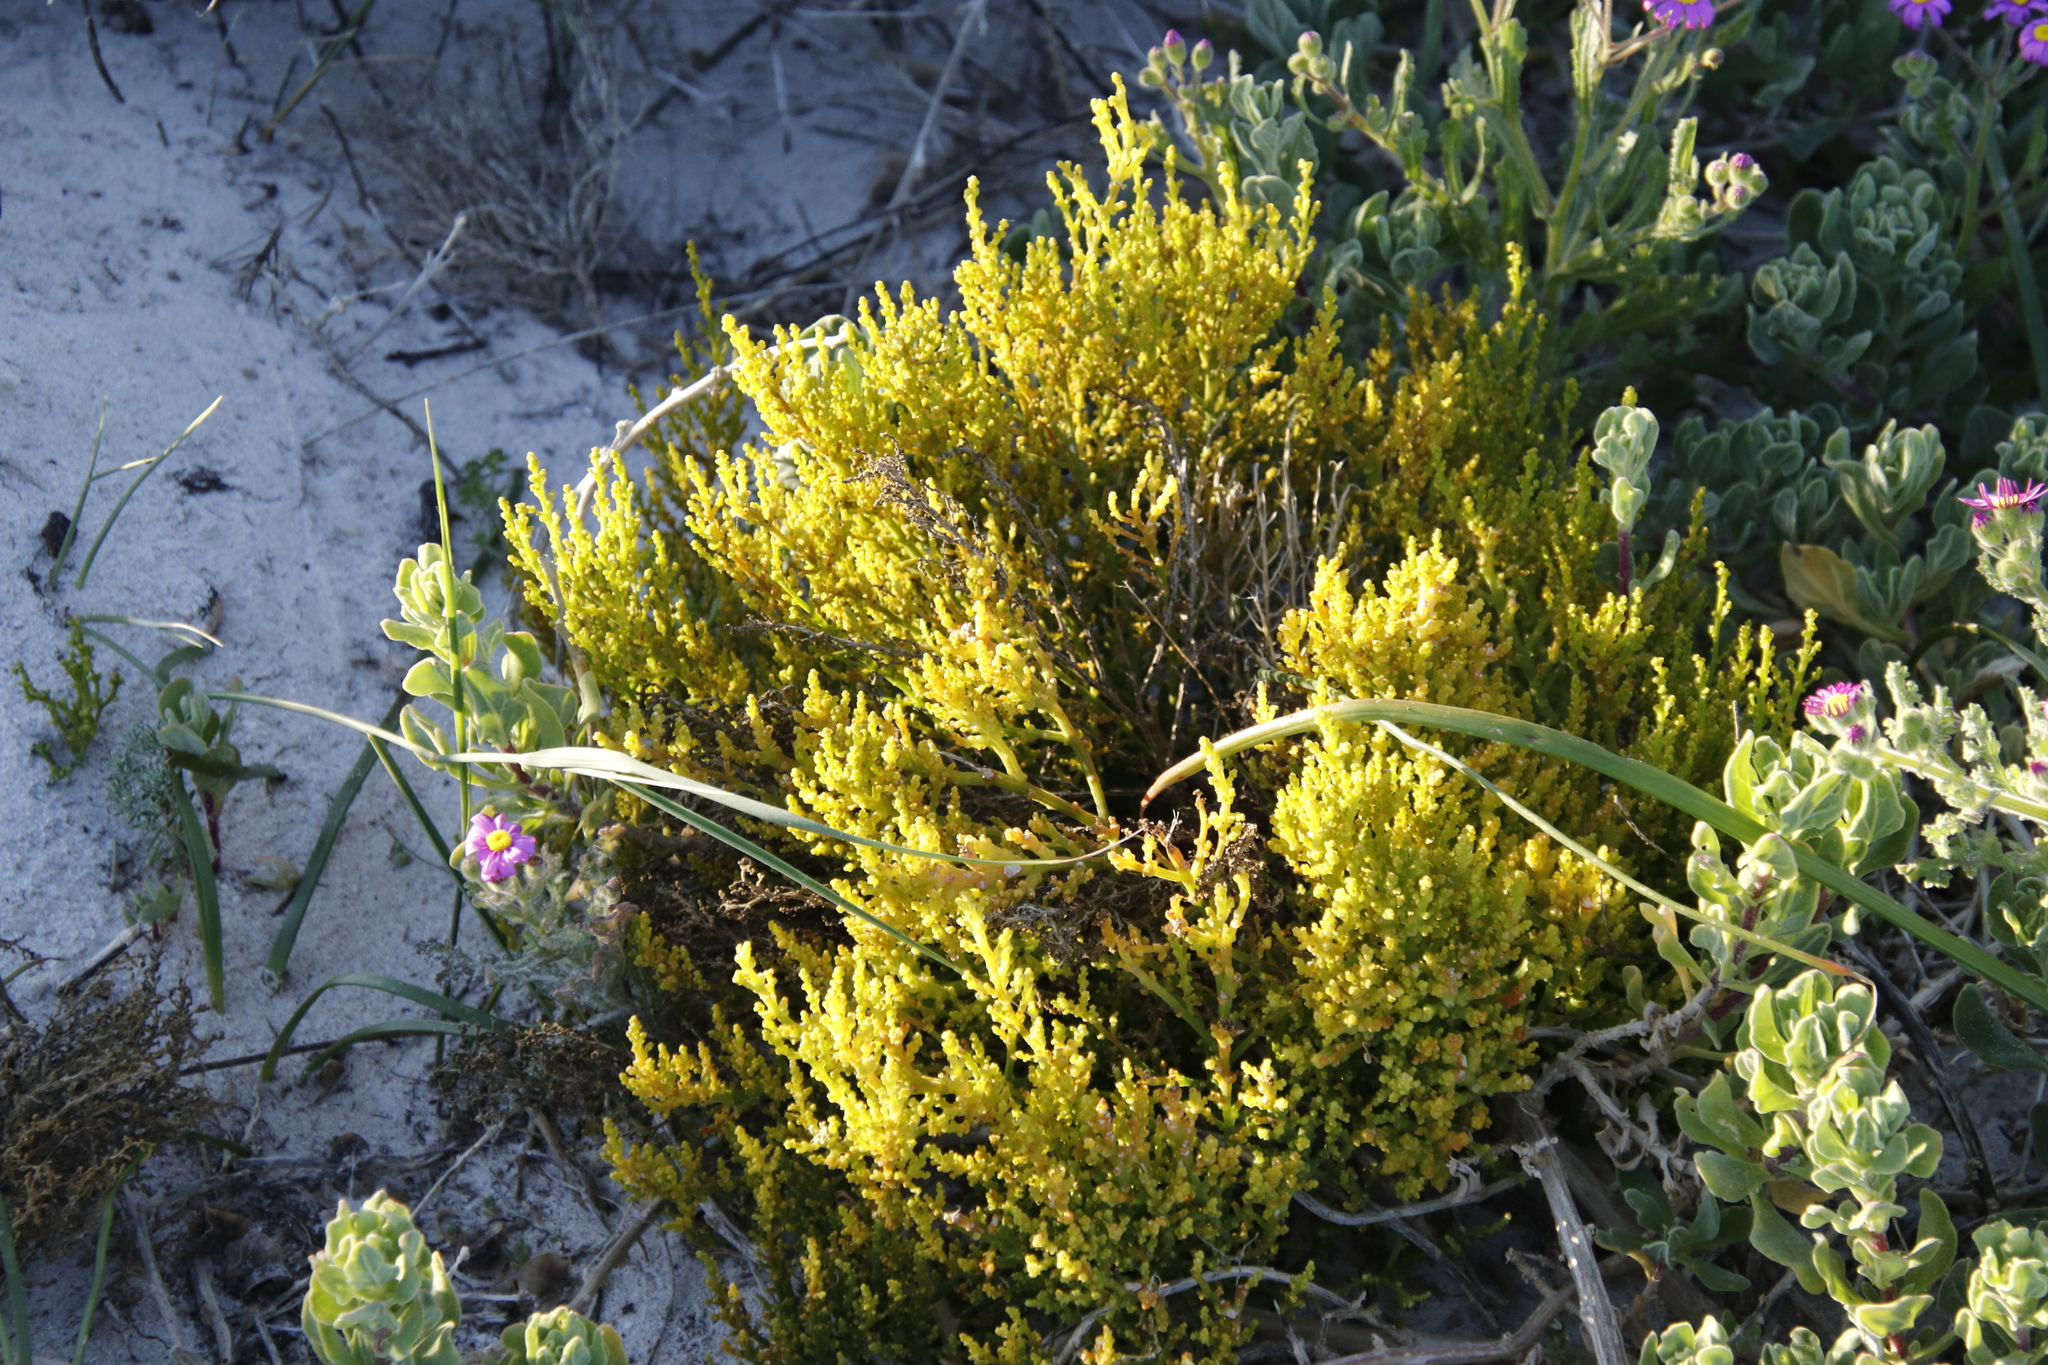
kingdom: Plantae
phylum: Tracheophyta
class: Magnoliopsida
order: Santalales
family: Thesiaceae
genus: Thesium
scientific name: Thesium fragile
